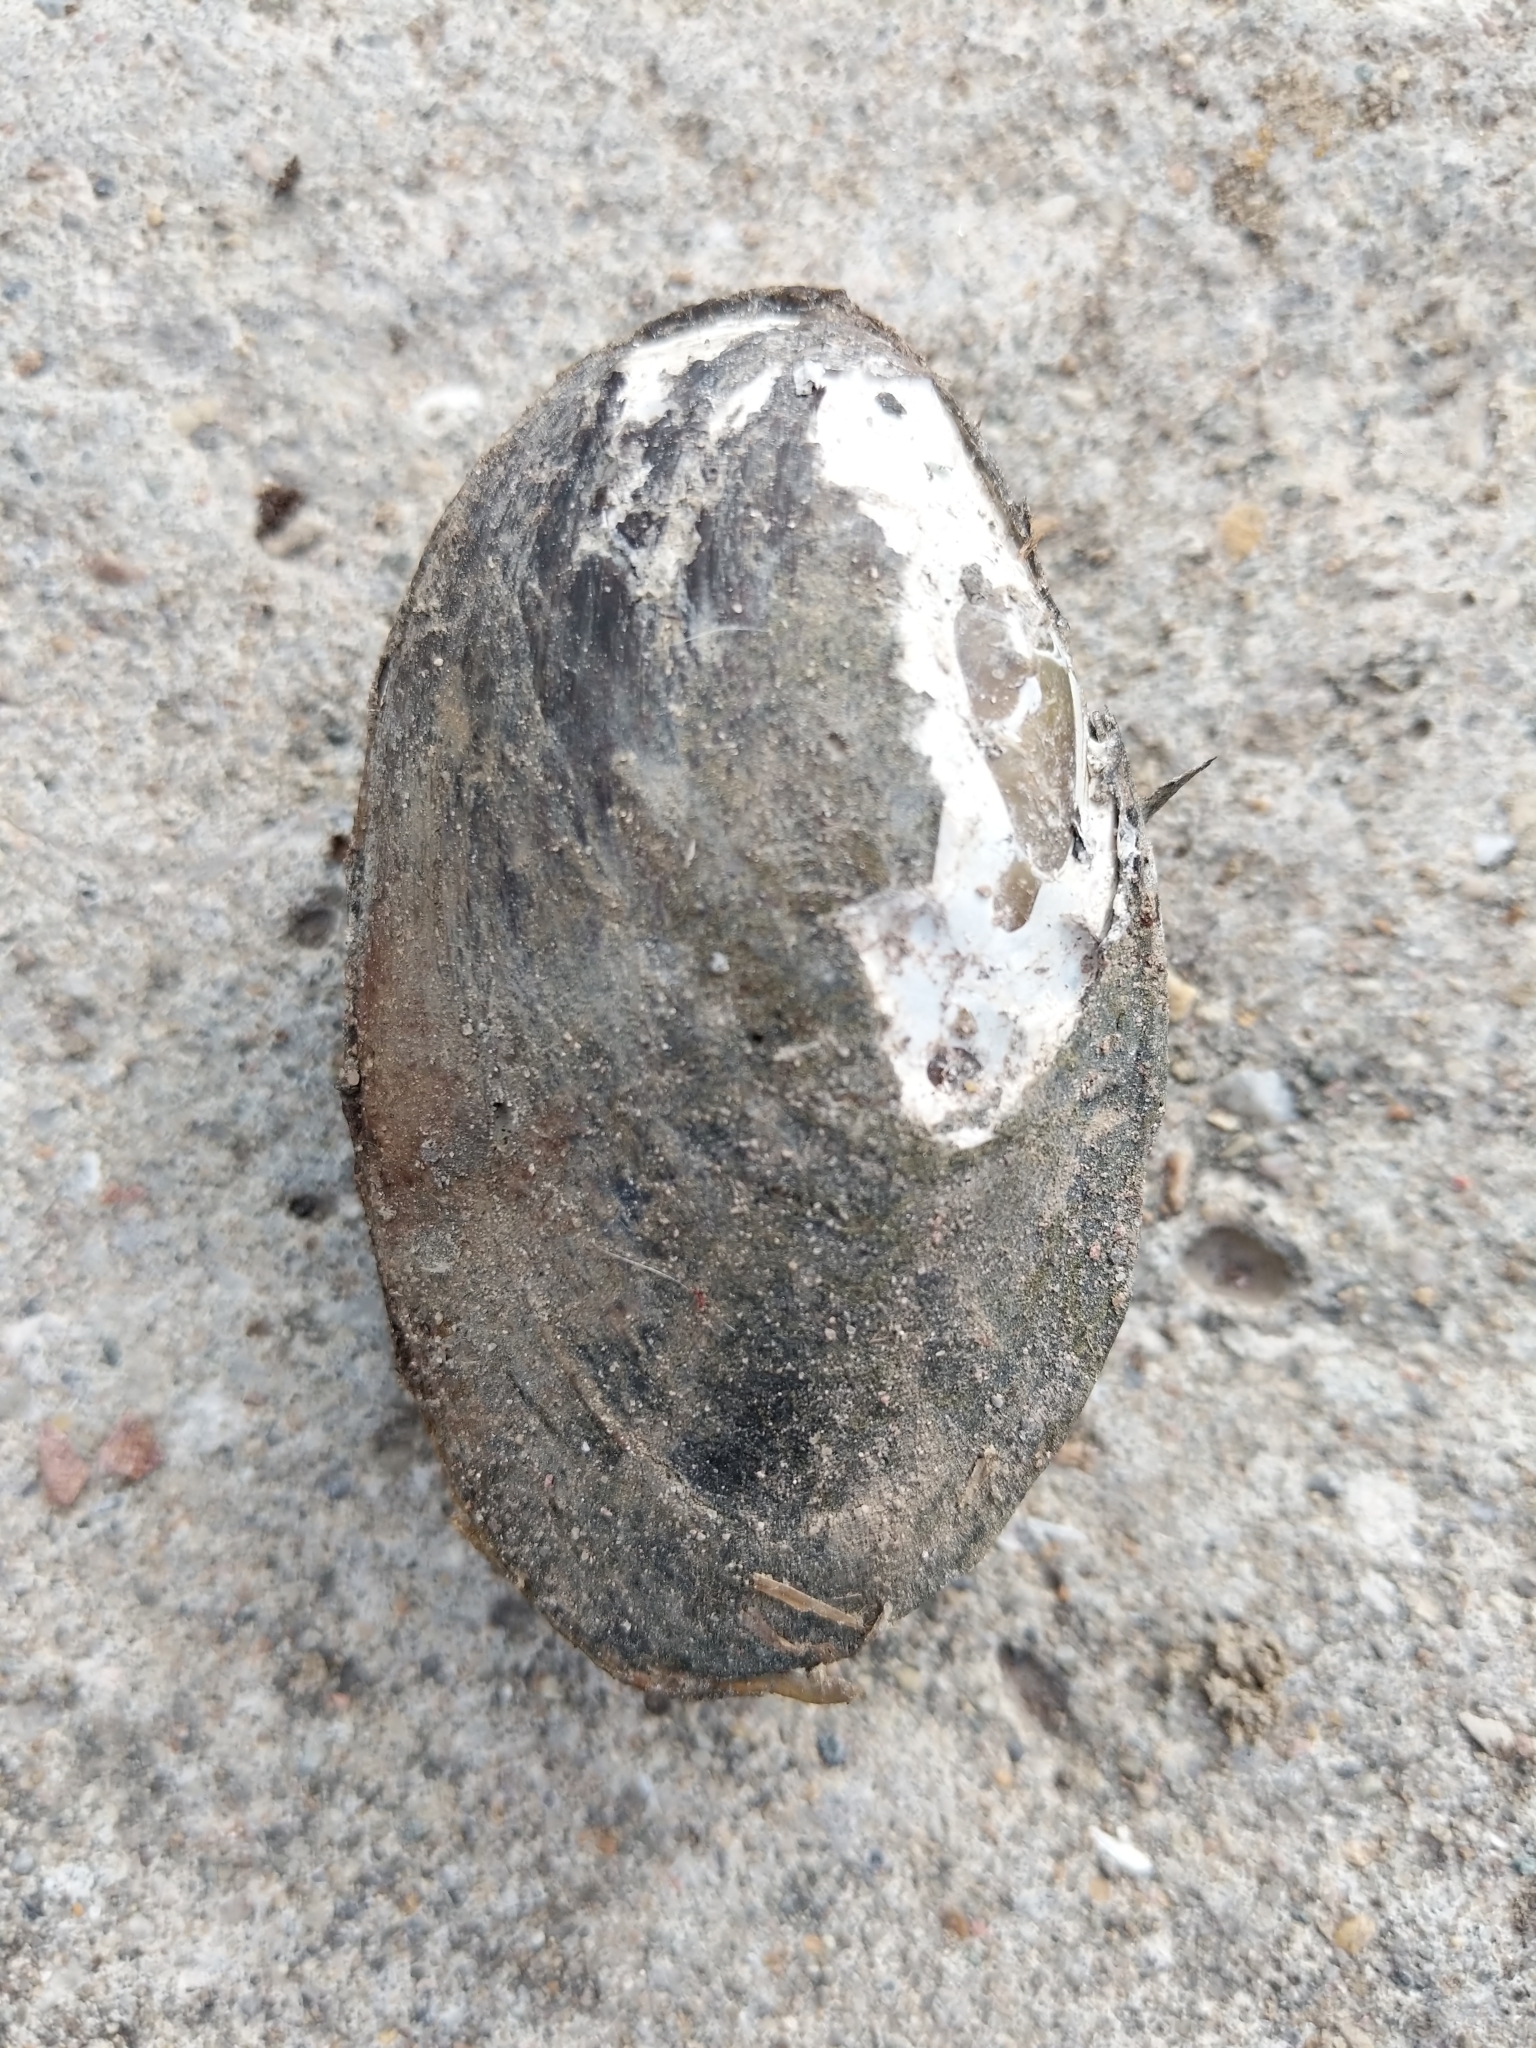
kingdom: Animalia
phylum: Mollusca
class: Bivalvia
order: Unionida
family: Unionidae
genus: Lampsilis
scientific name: Lampsilis siliquoidea
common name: Fatmucket
